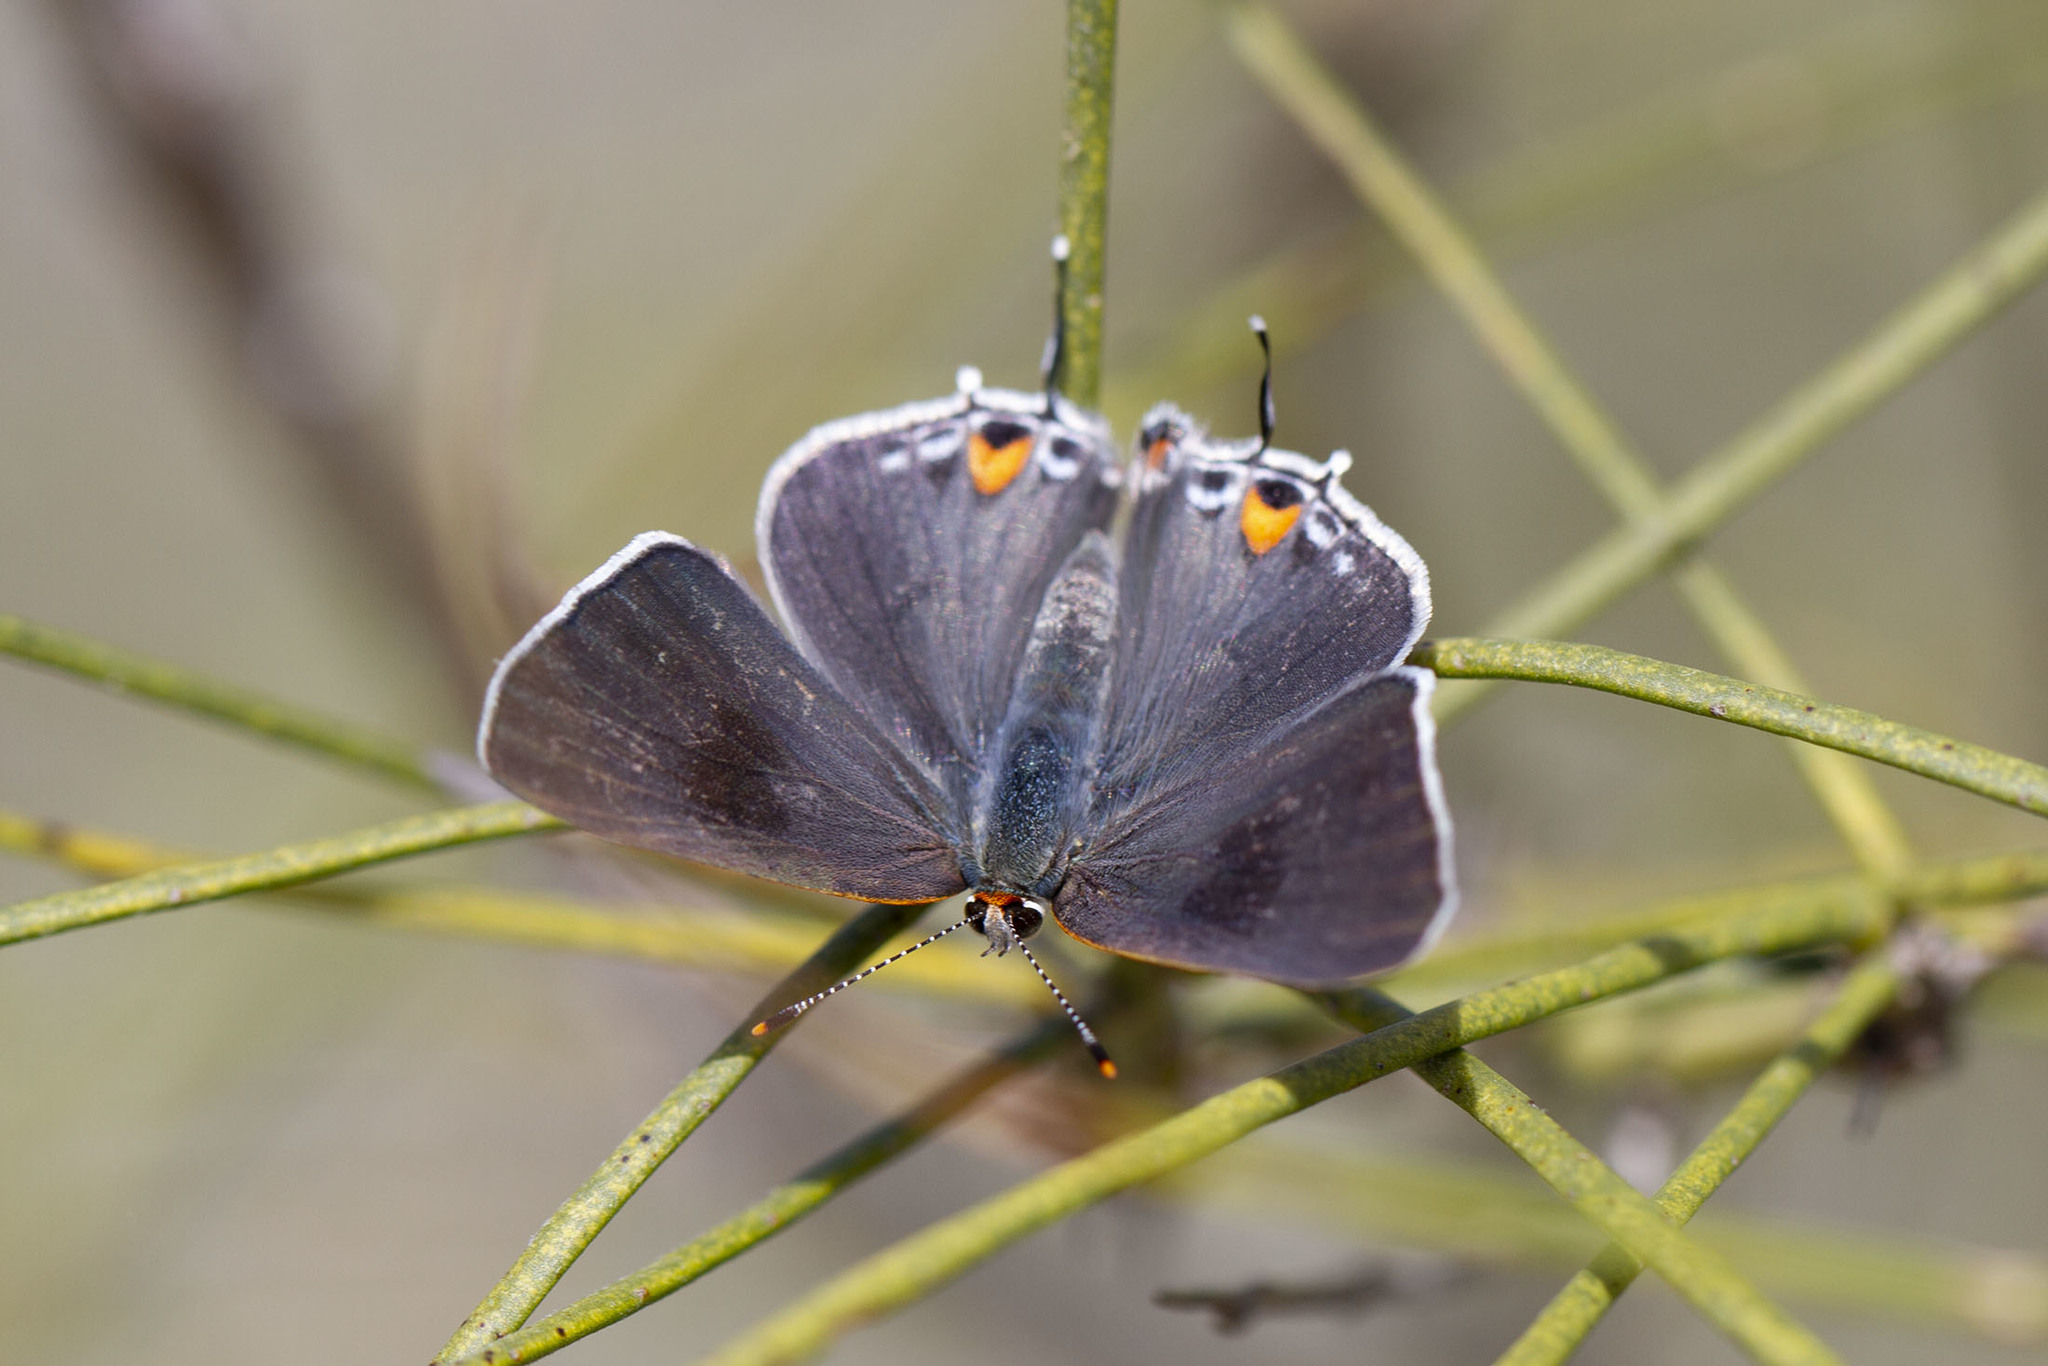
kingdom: Animalia
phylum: Arthropoda
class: Insecta
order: Lepidoptera
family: Lycaenidae
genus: Thecla
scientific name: Thecla pudica
